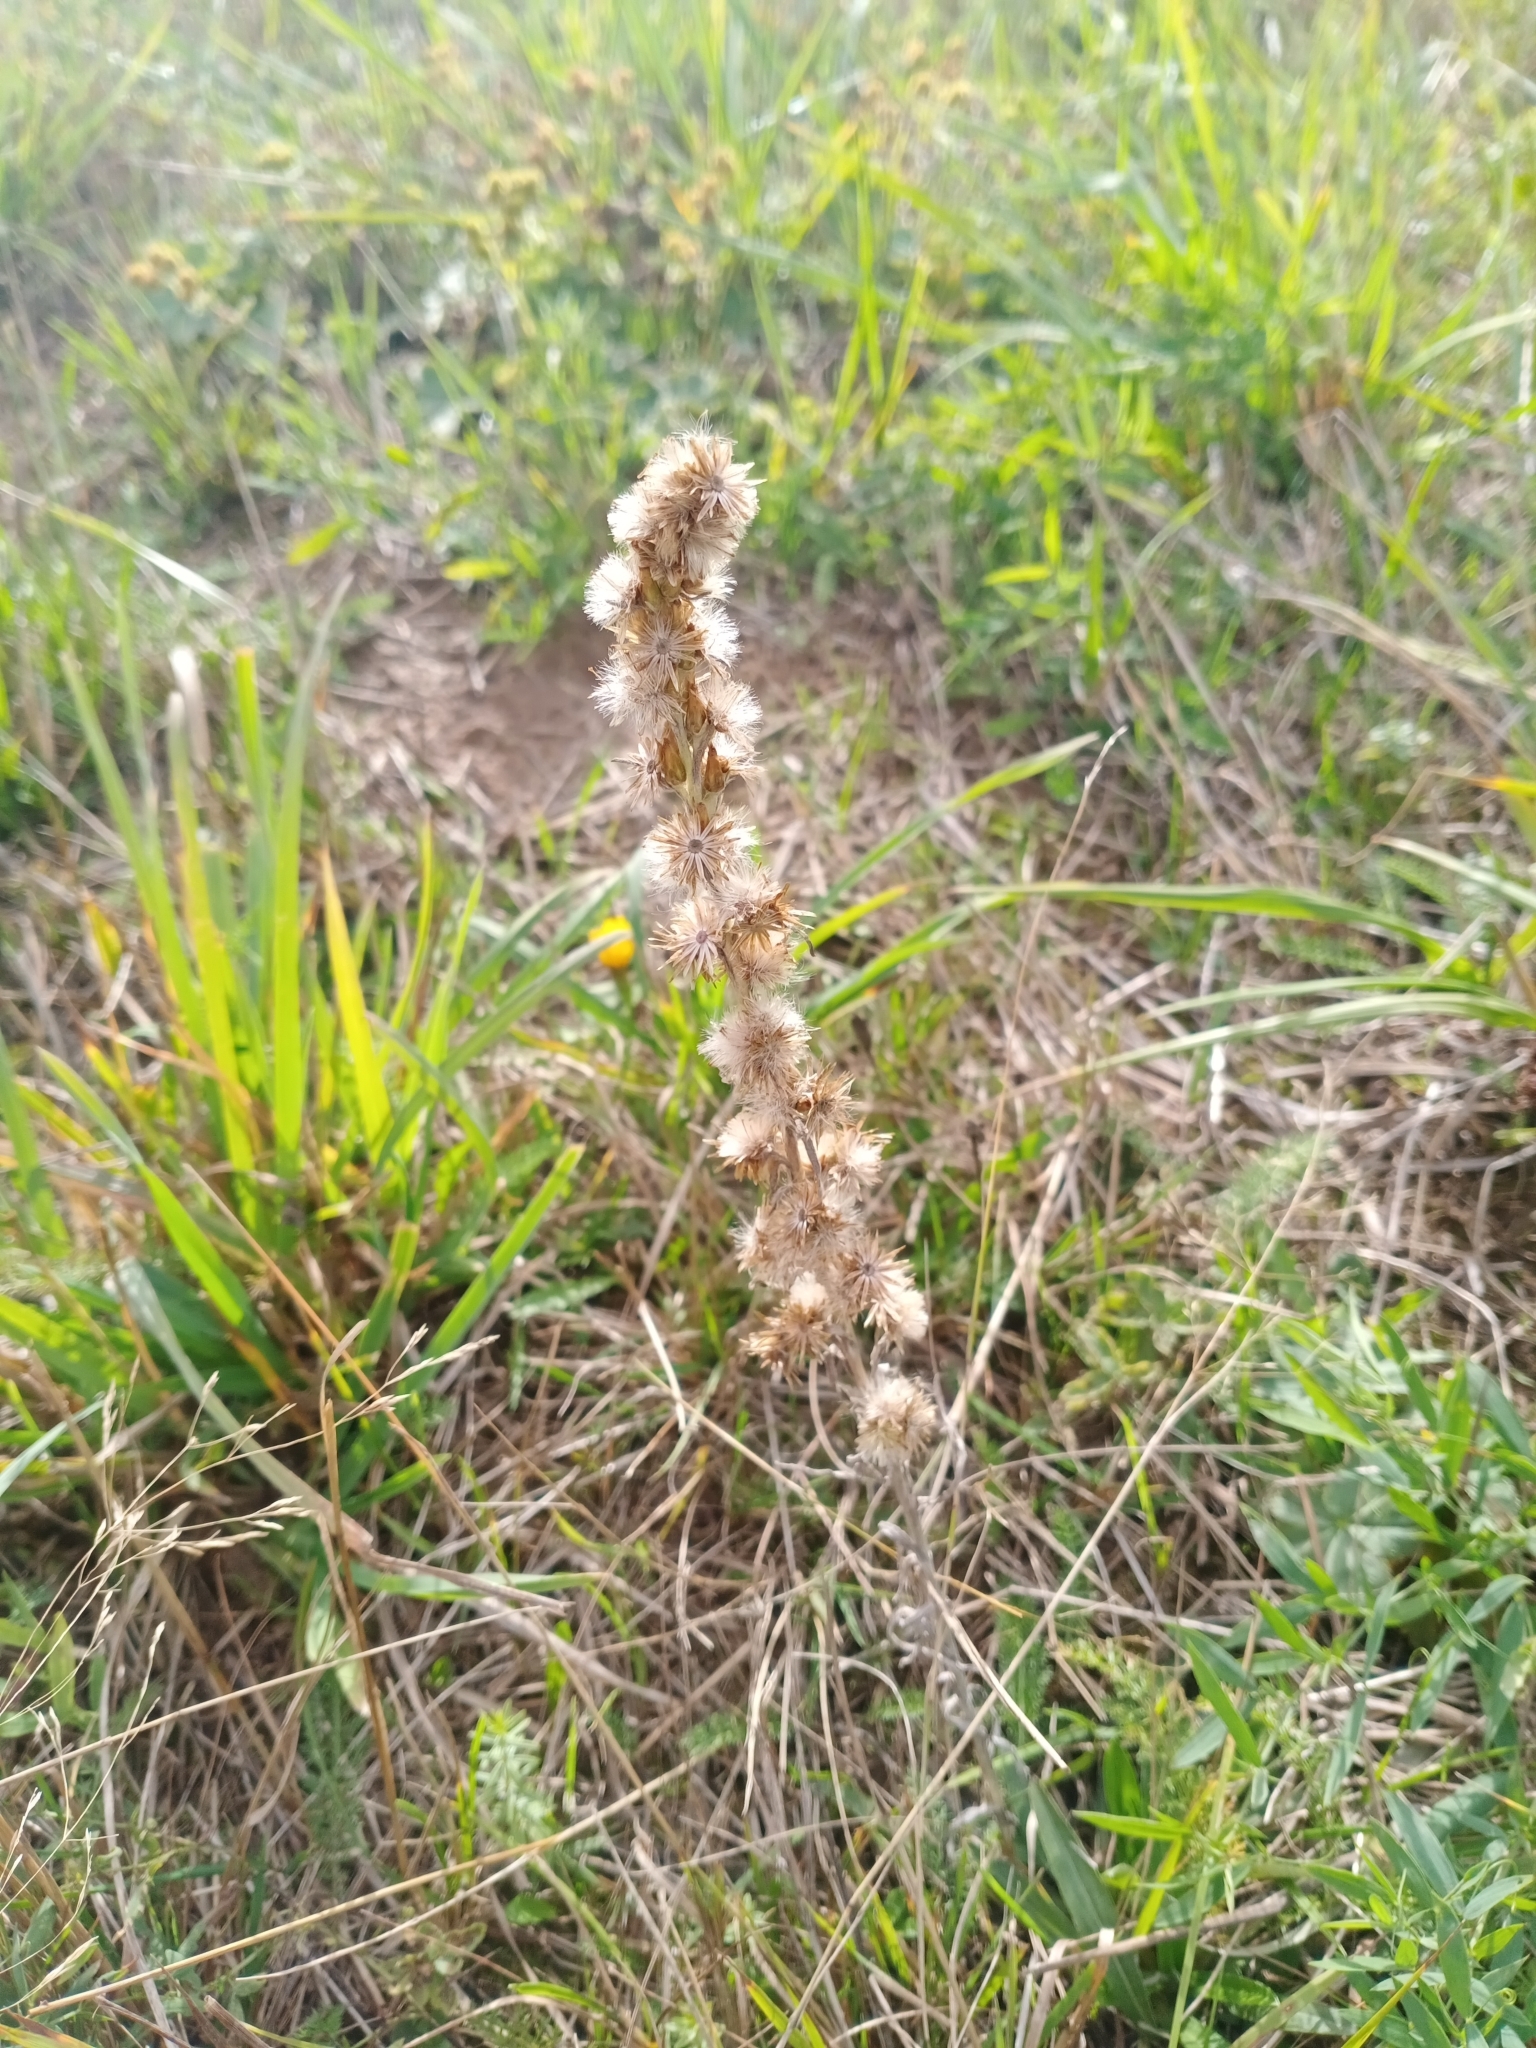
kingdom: Plantae
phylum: Tracheophyta
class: Magnoliopsida
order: Asterales
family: Asteraceae
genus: Omalotheca
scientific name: Omalotheca sylvatica
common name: Heath cudweed
